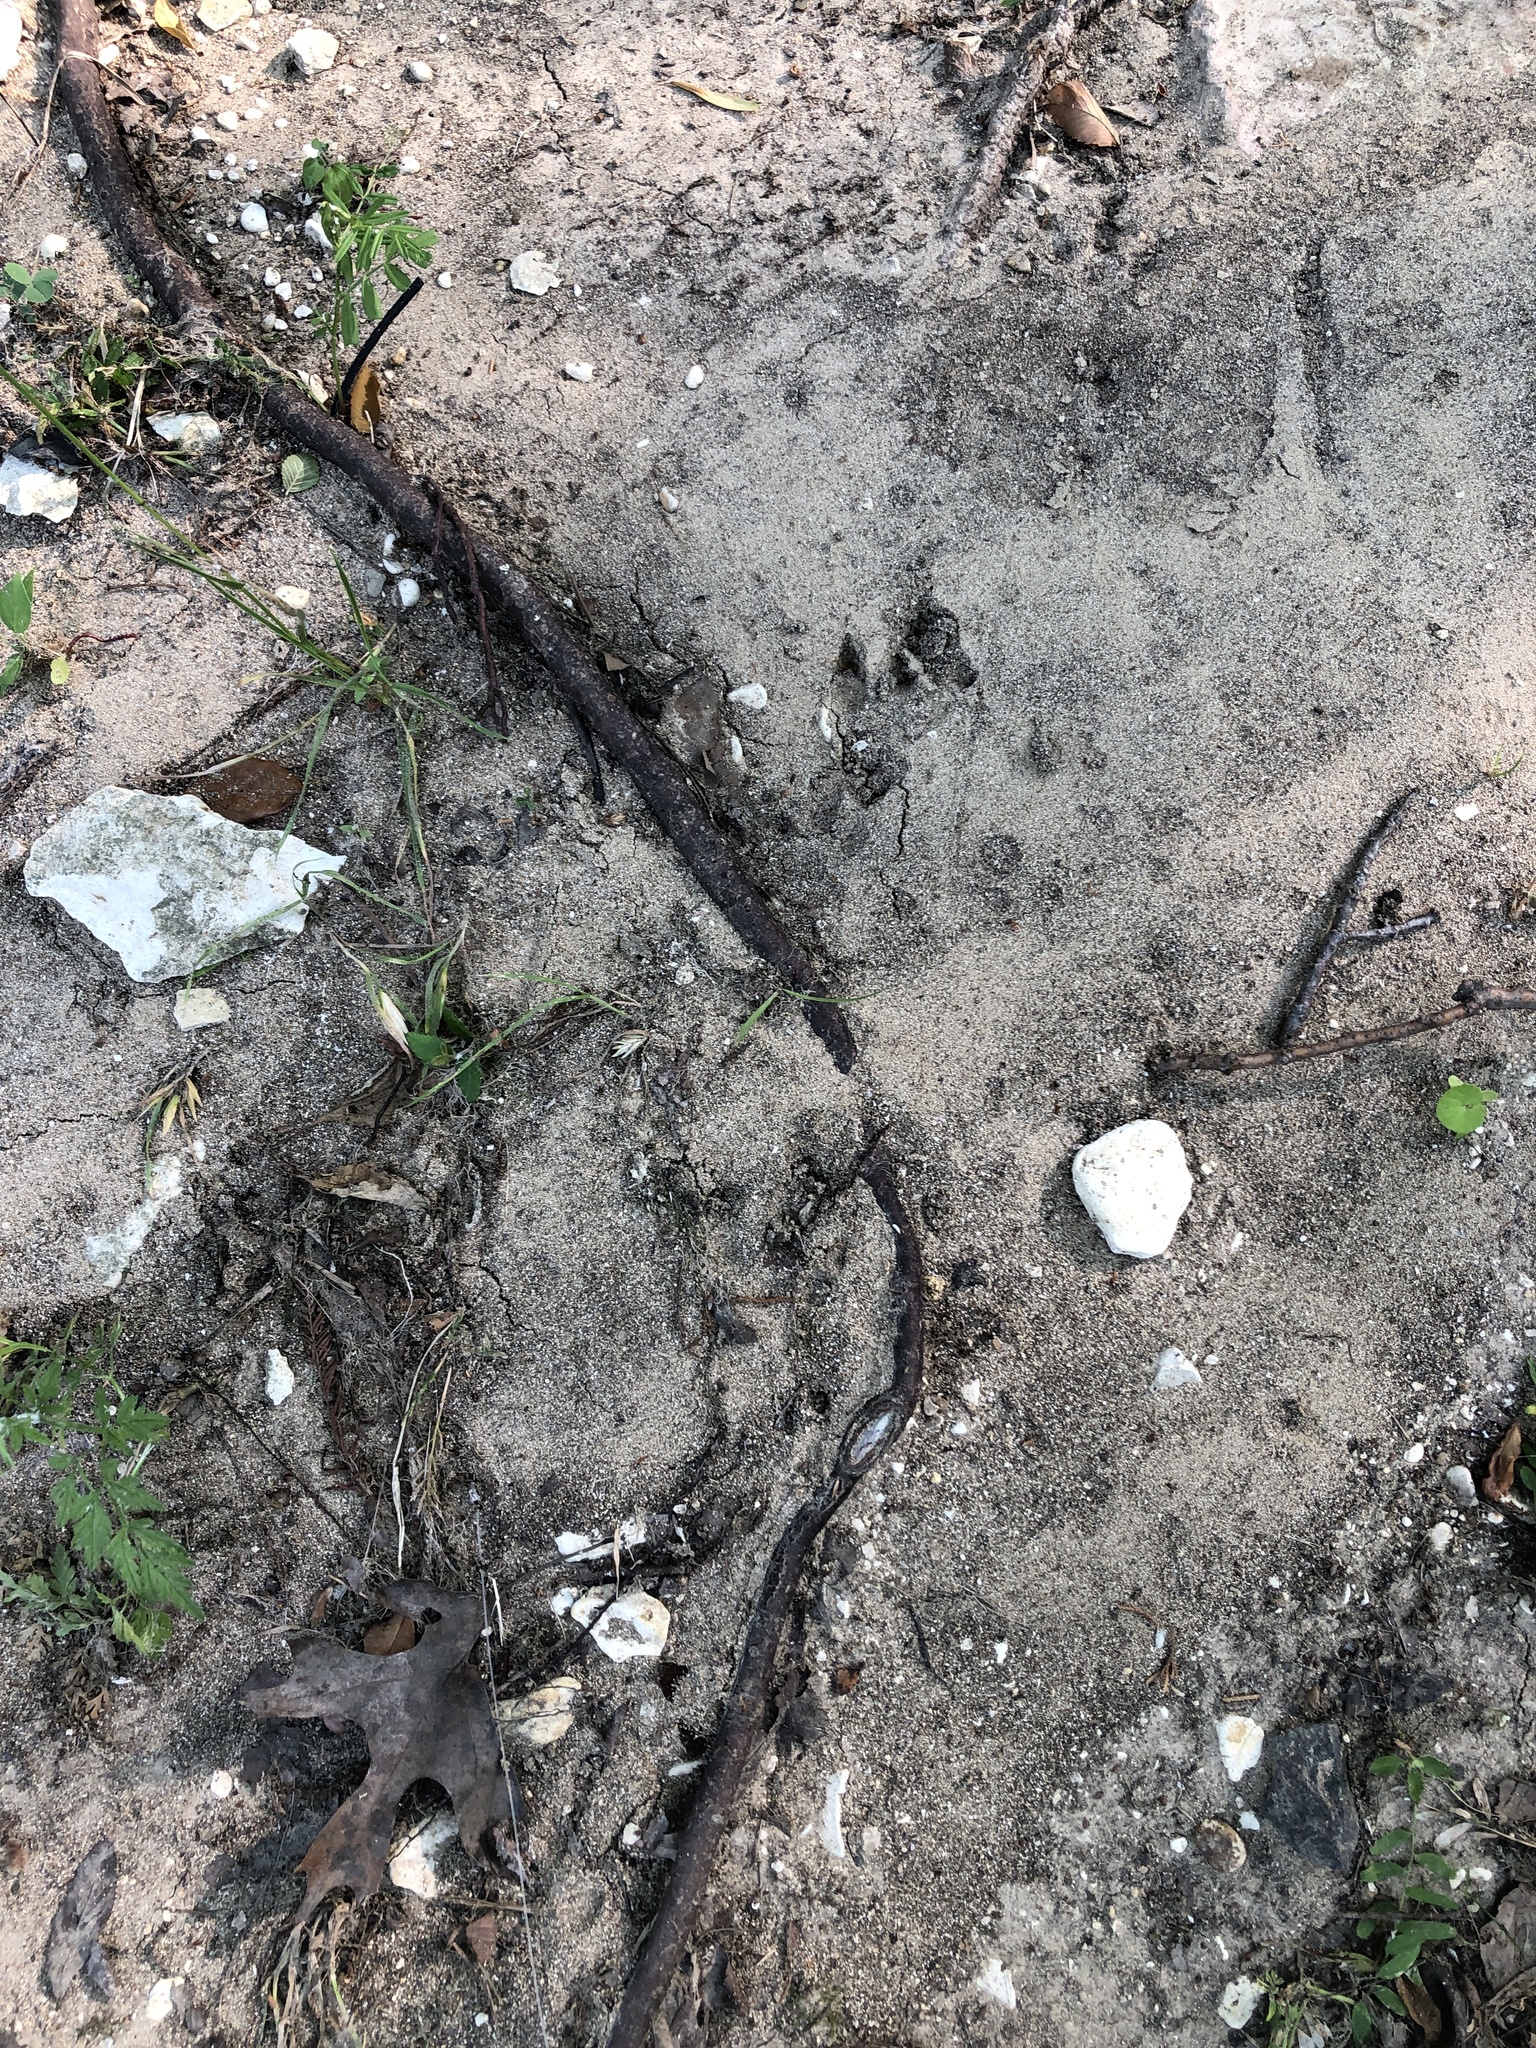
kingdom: Animalia
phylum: Chordata
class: Mammalia
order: Cingulata
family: Dasypodidae
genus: Dasypus
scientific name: Dasypus novemcinctus
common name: Nine-banded armadillo
